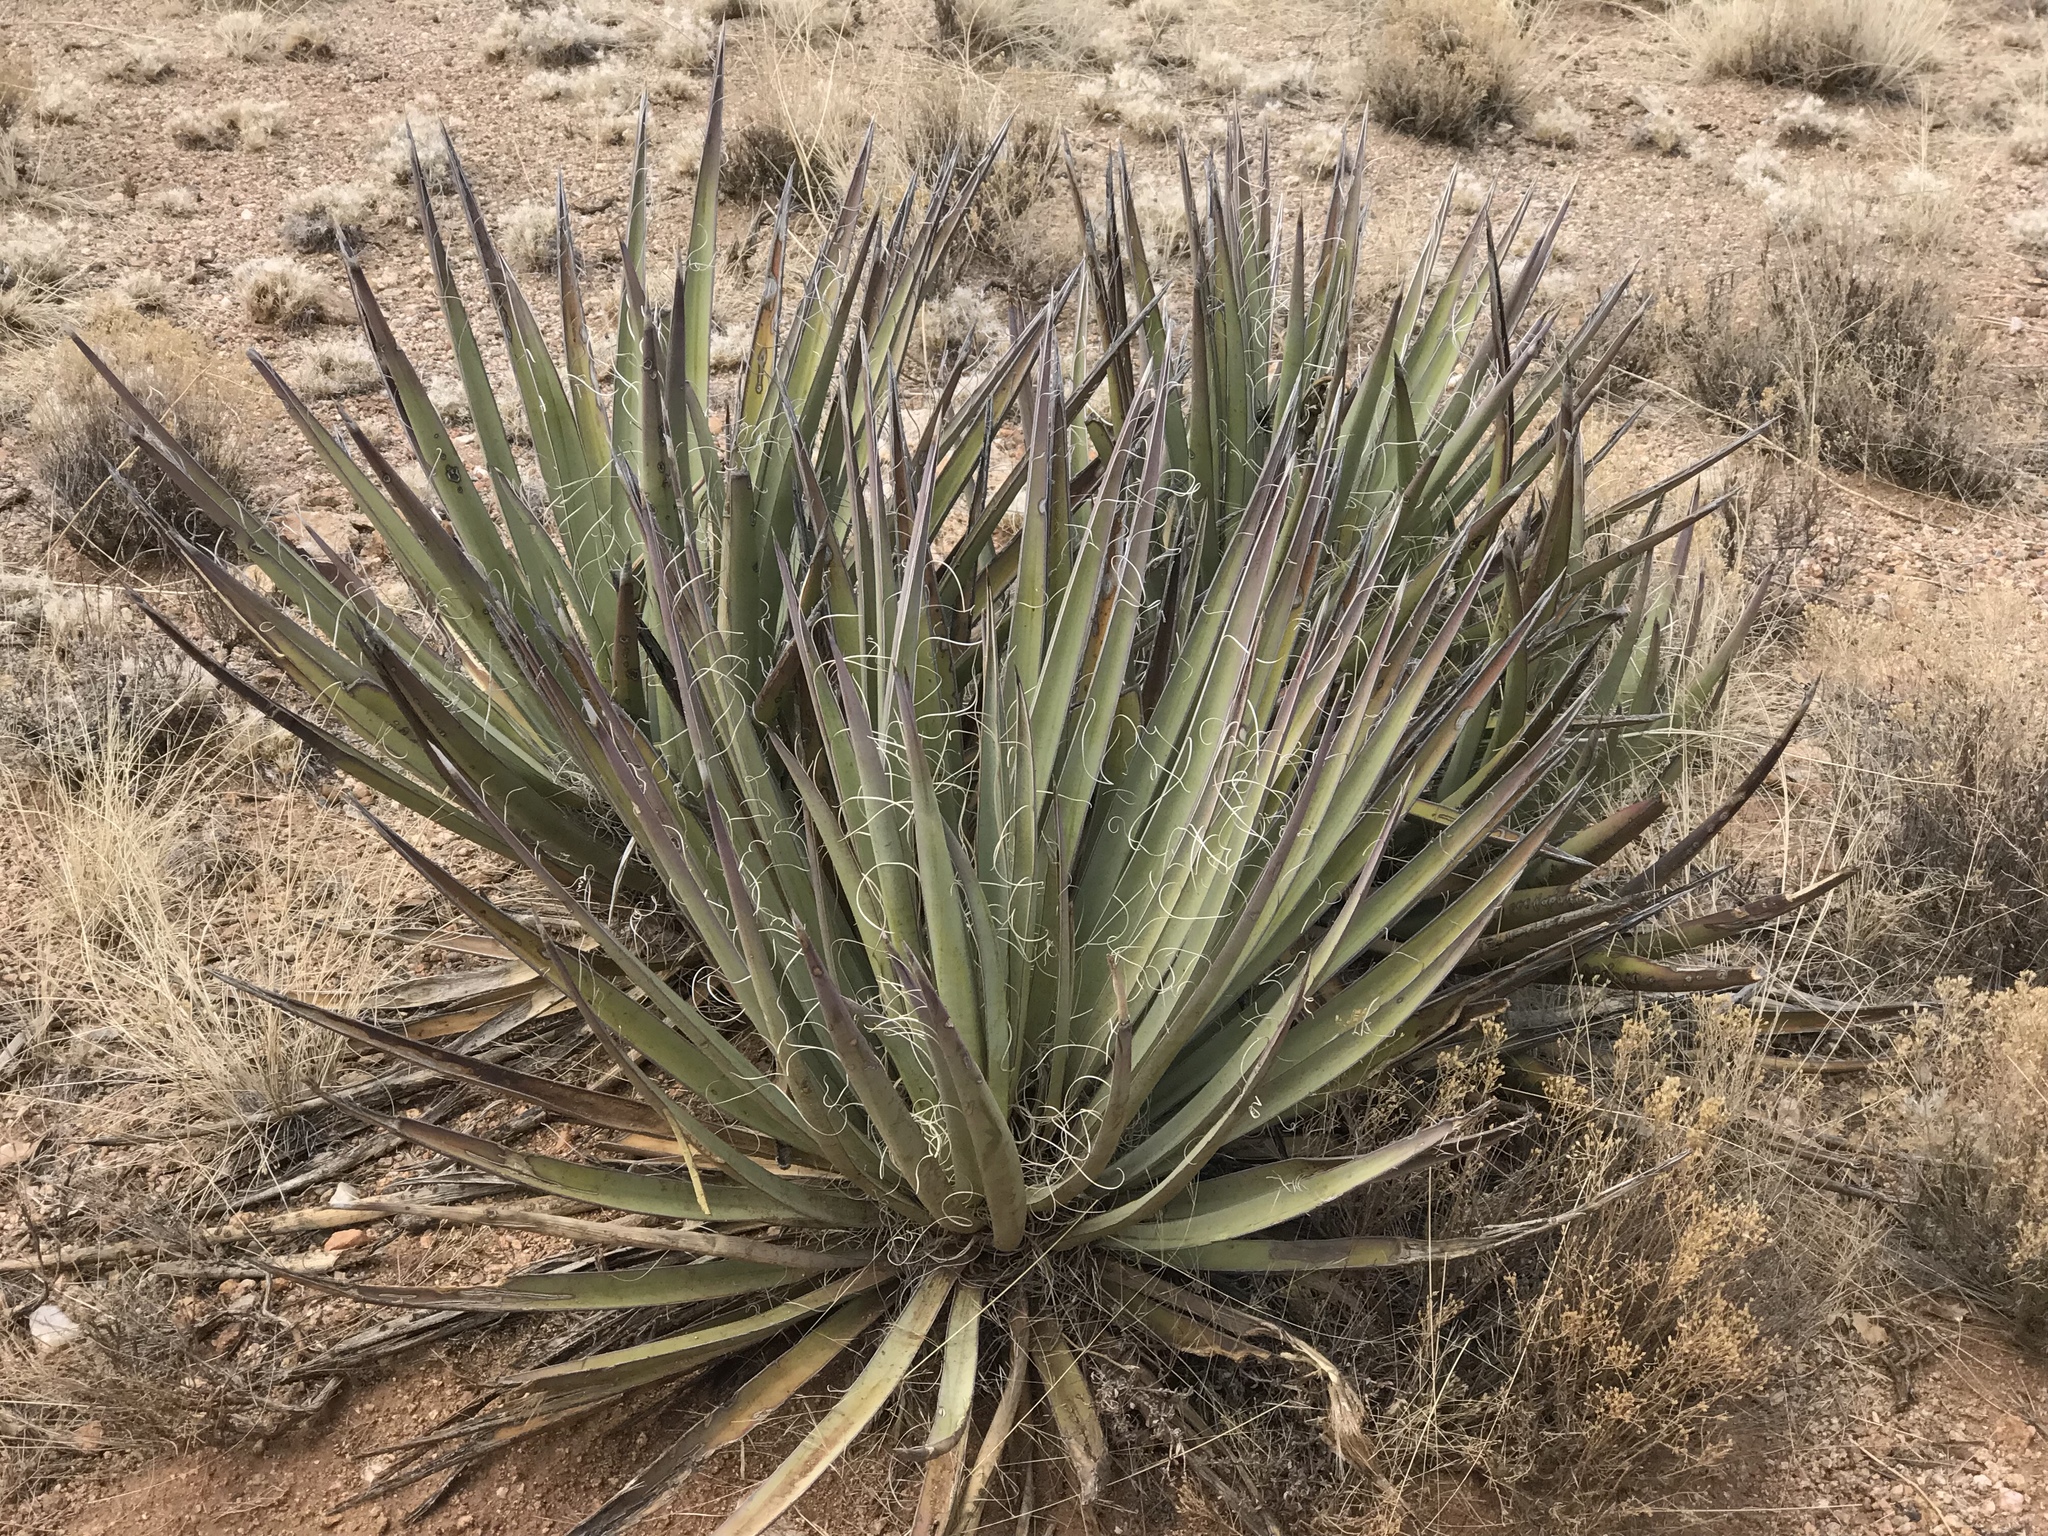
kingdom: Plantae
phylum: Tracheophyta
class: Liliopsida
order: Asparagales
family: Asparagaceae
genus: Yucca
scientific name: Yucca baccata
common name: Banana yucca
